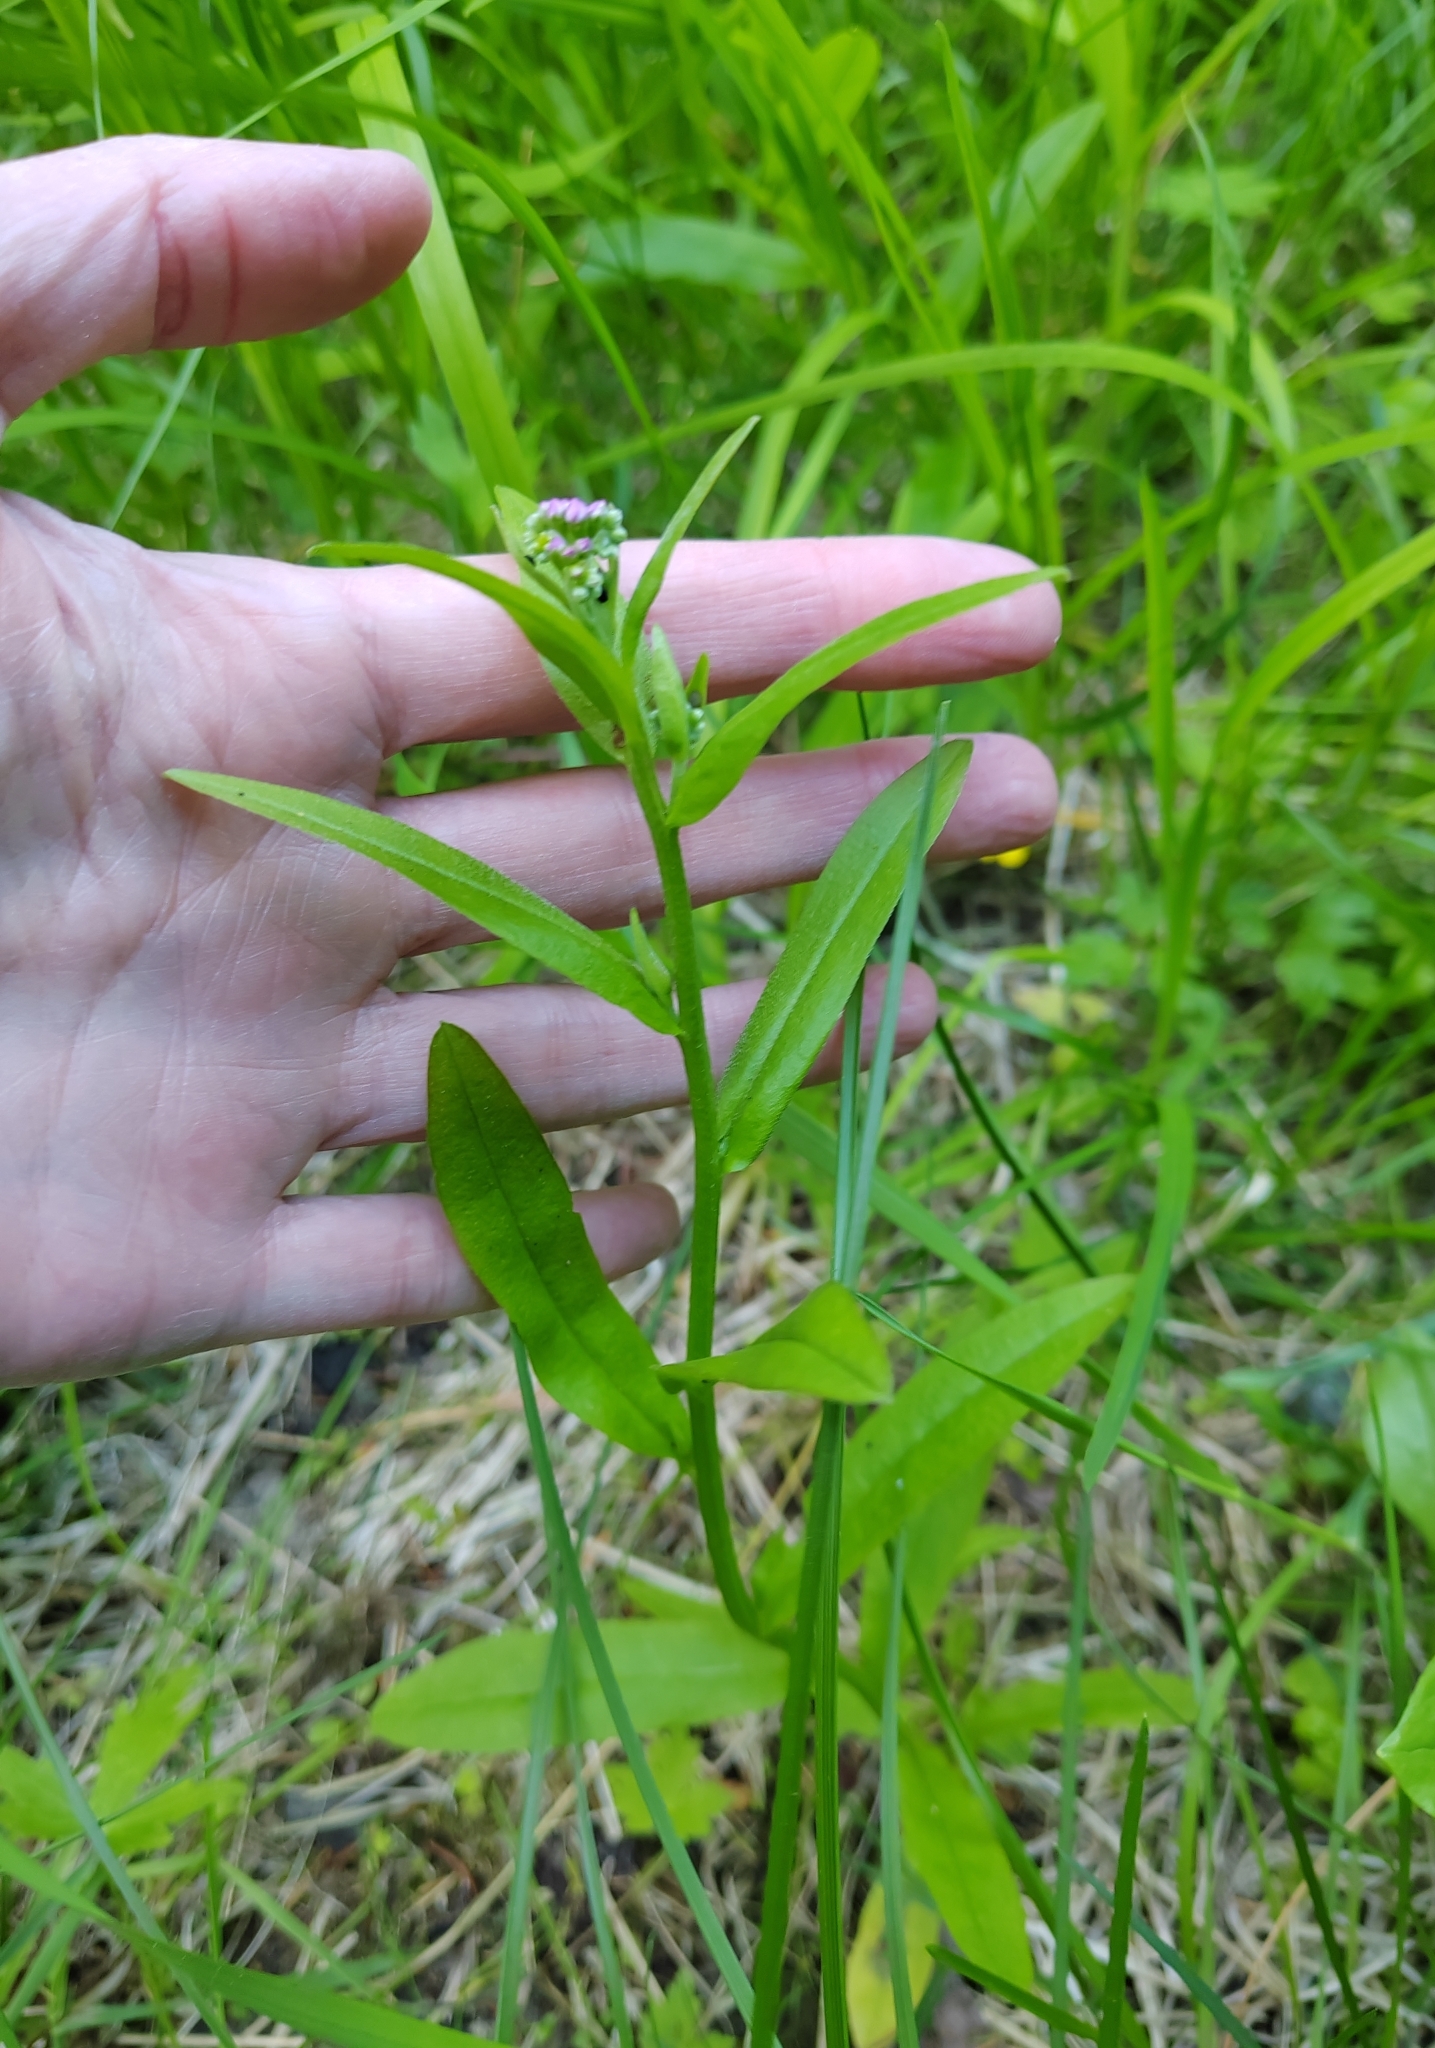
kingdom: Plantae
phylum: Tracheophyta
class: Magnoliopsida
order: Boraginales
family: Boraginaceae
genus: Myosotis
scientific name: Myosotis scorpioides
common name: Water forget-me-not
